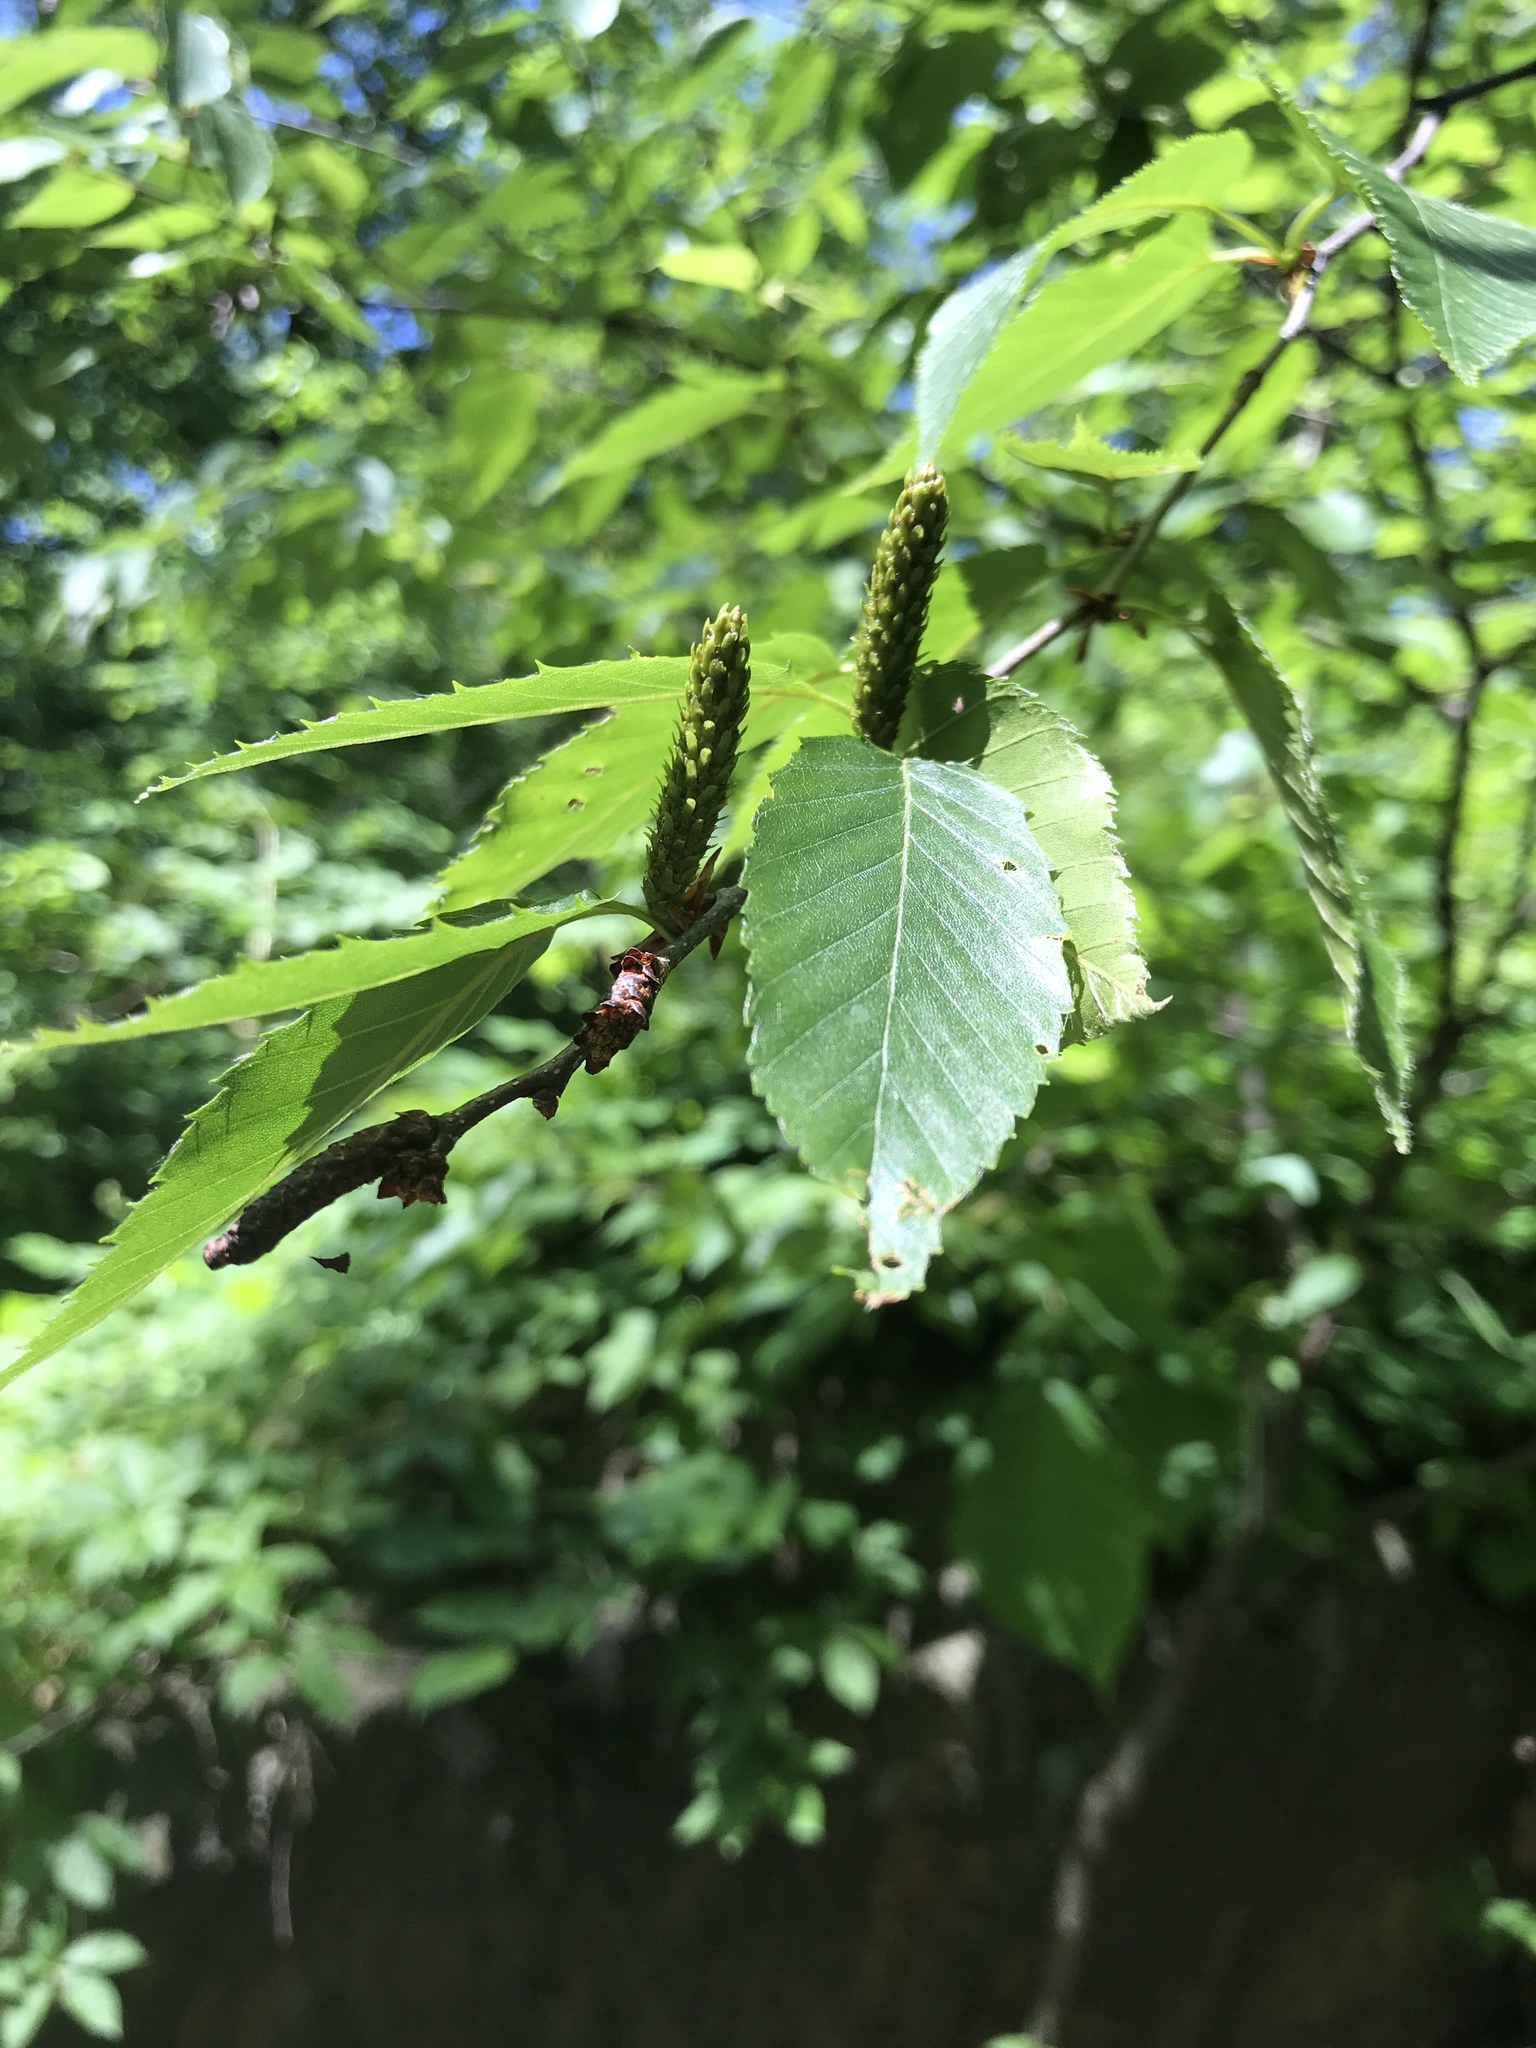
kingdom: Plantae
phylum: Tracheophyta
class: Magnoliopsida
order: Fagales
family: Betulaceae
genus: Betula
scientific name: Betula lenta
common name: Black birch
